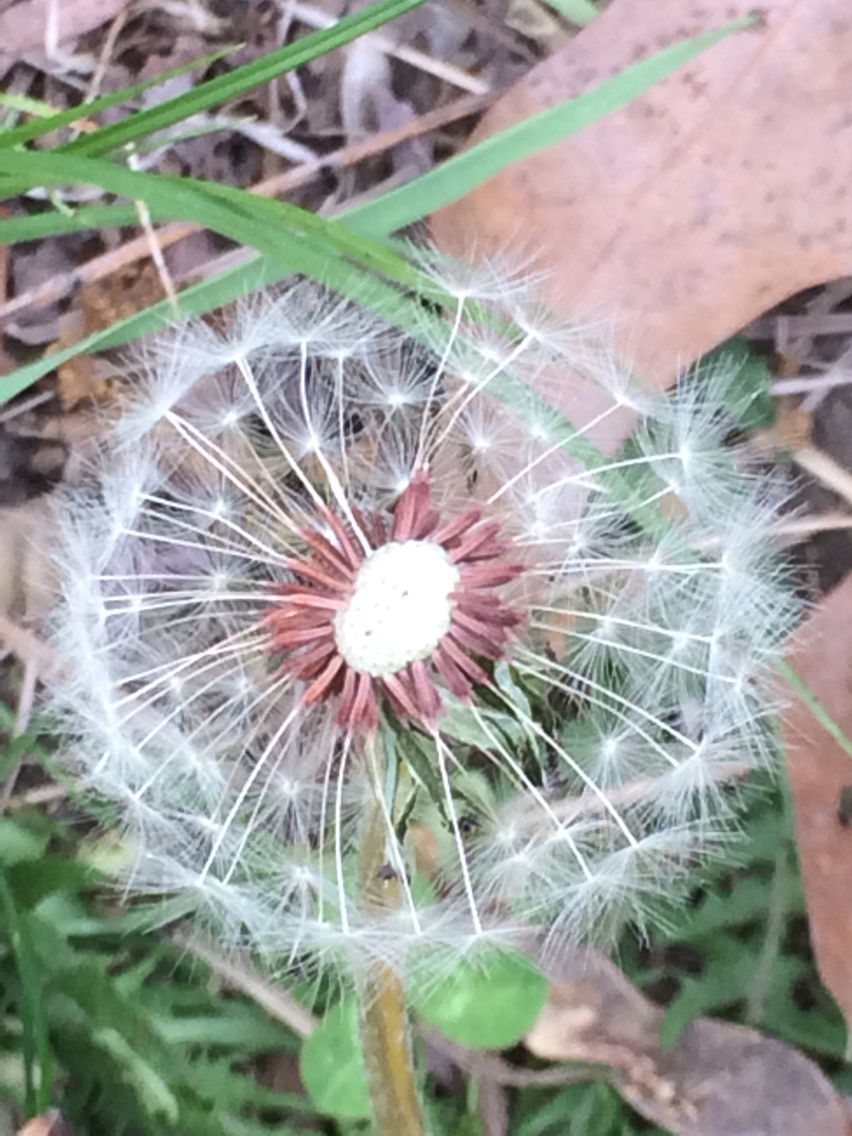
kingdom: Plantae
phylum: Tracheophyta
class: Magnoliopsida
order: Asterales
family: Asteraceae
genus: Taraxacum
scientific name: Taraxacum erythrospermum
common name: Rock dandelion
